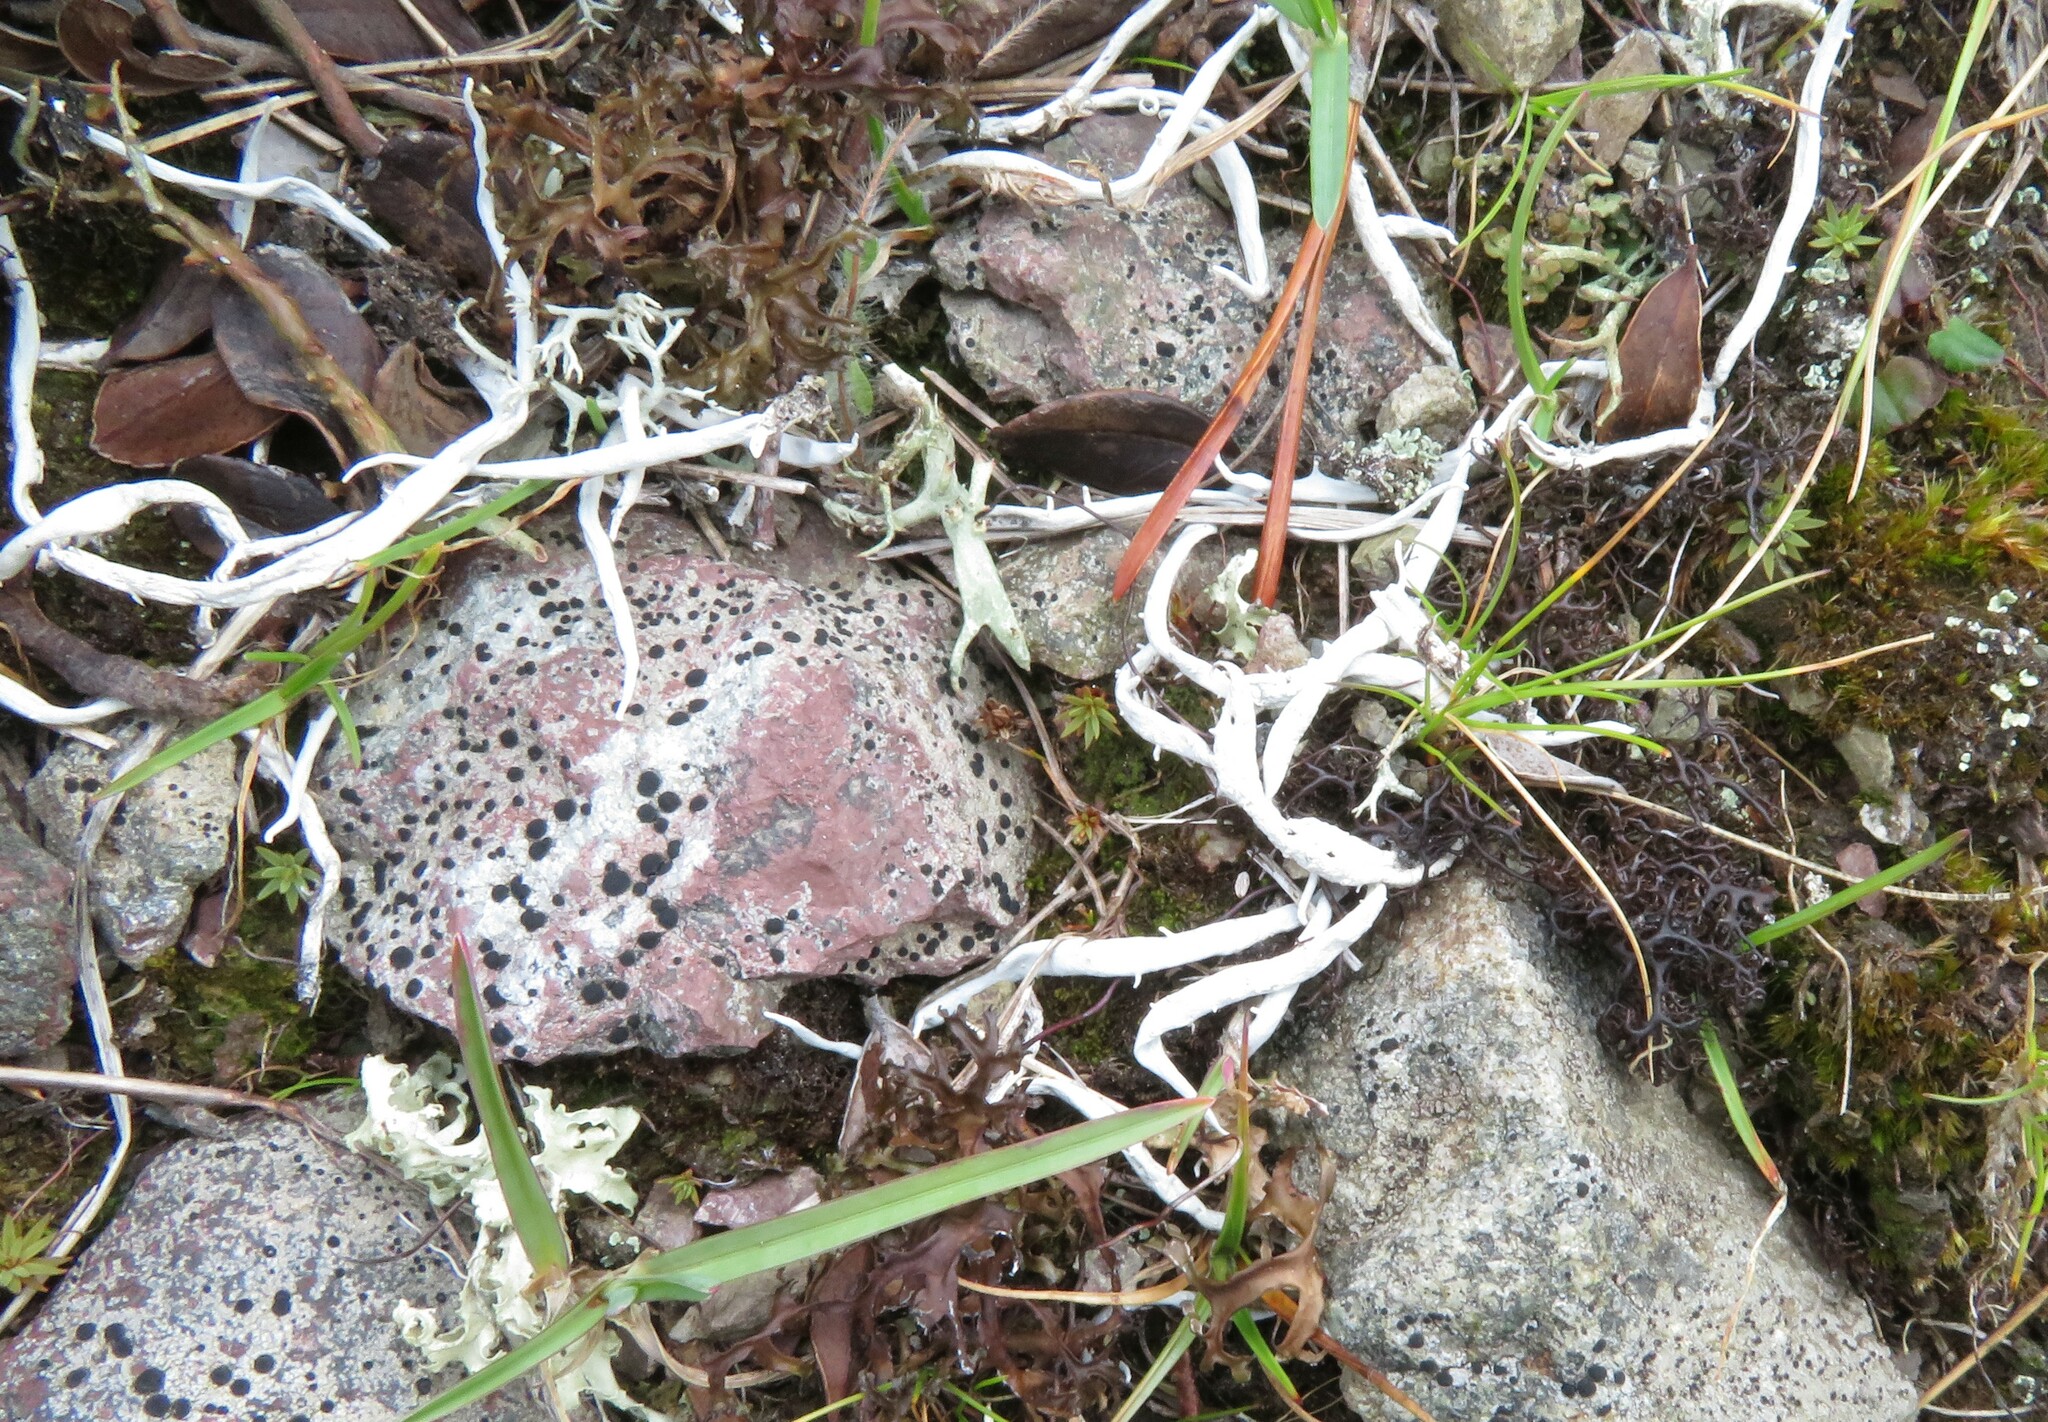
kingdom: Fungi
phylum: Ascomycota
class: Lecanoromycetes
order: Pertusariales
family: Icmadophilaceae
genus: Thamnolia
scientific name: Thamnolia vermicularis
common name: Whiteworm lichen
